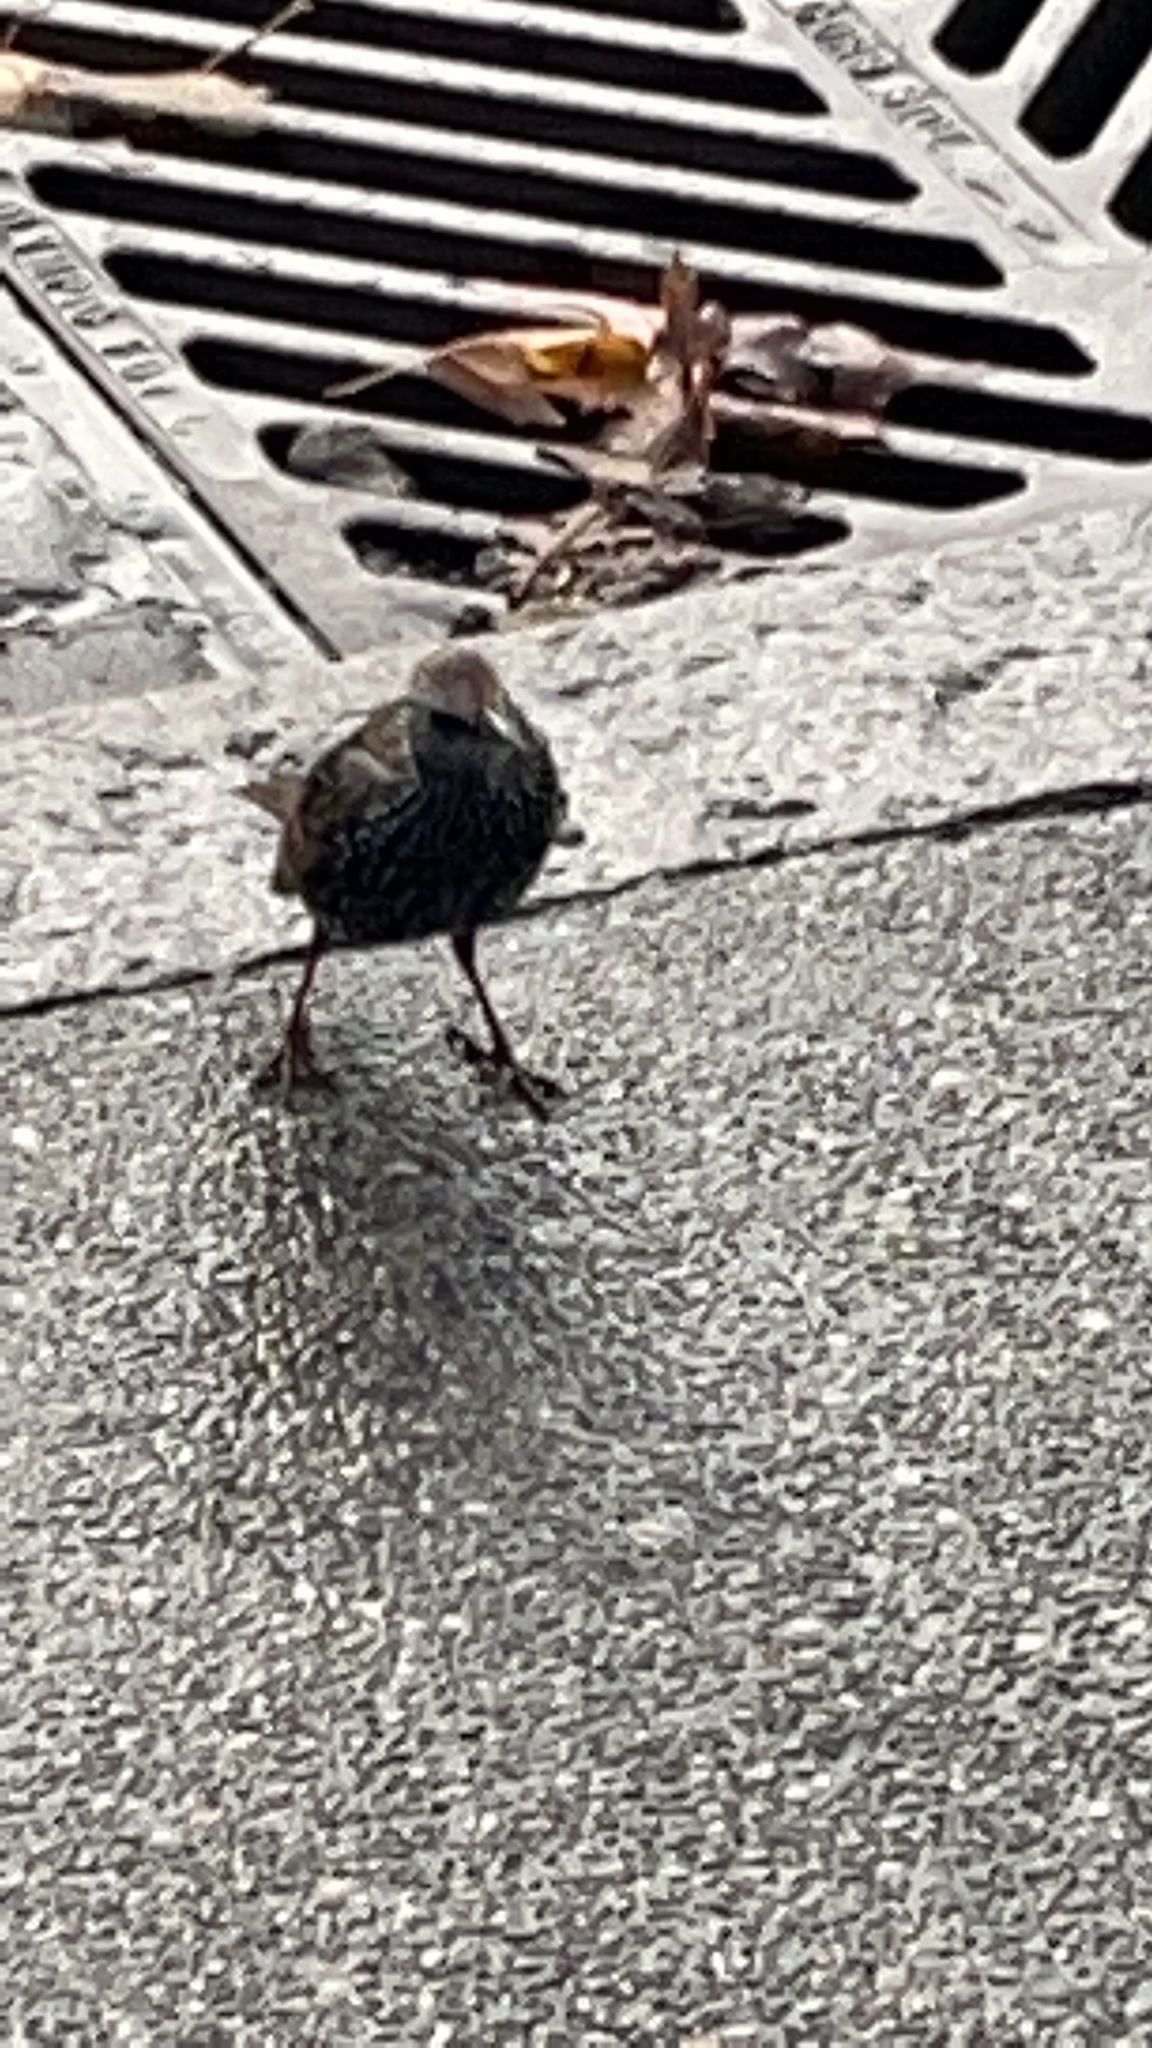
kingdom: Animalia
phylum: Chordata
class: Aves
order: Passeriformes
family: Sturnidae
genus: Sturnus
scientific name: Sturnus vulgaris
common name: Common starling
